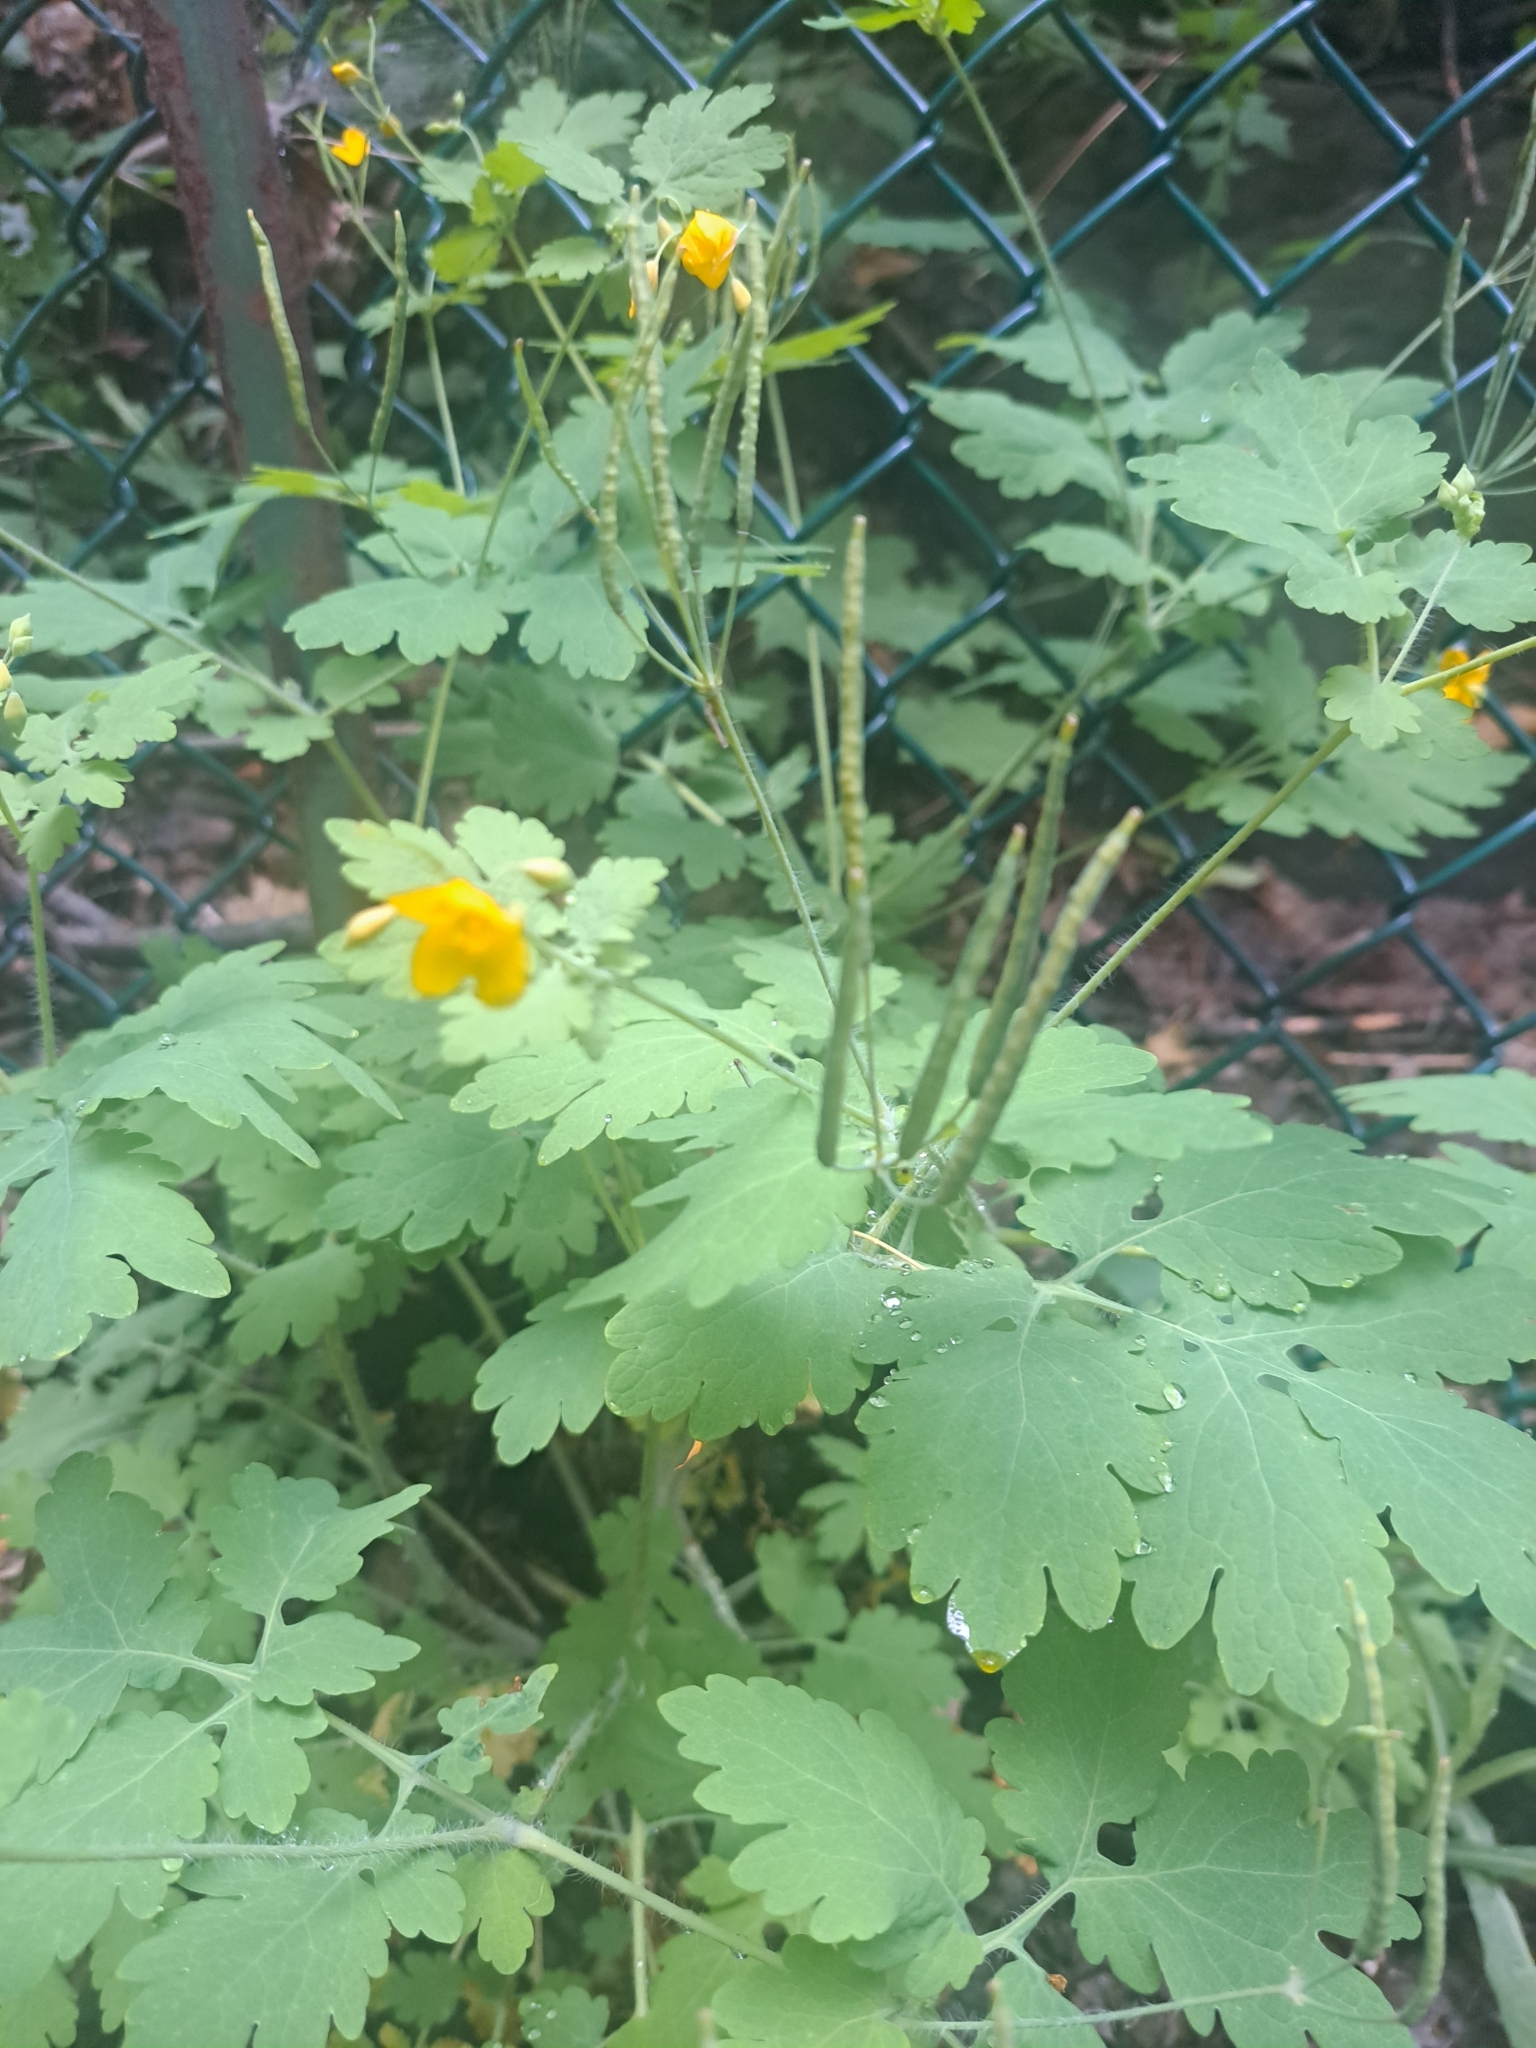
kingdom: Plantae
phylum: Tracheophyta
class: Magnoliopsida
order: Ranunculales
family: Papaveraceae
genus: Chelidonium
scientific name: Chelidonium majus
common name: Greater celandine
